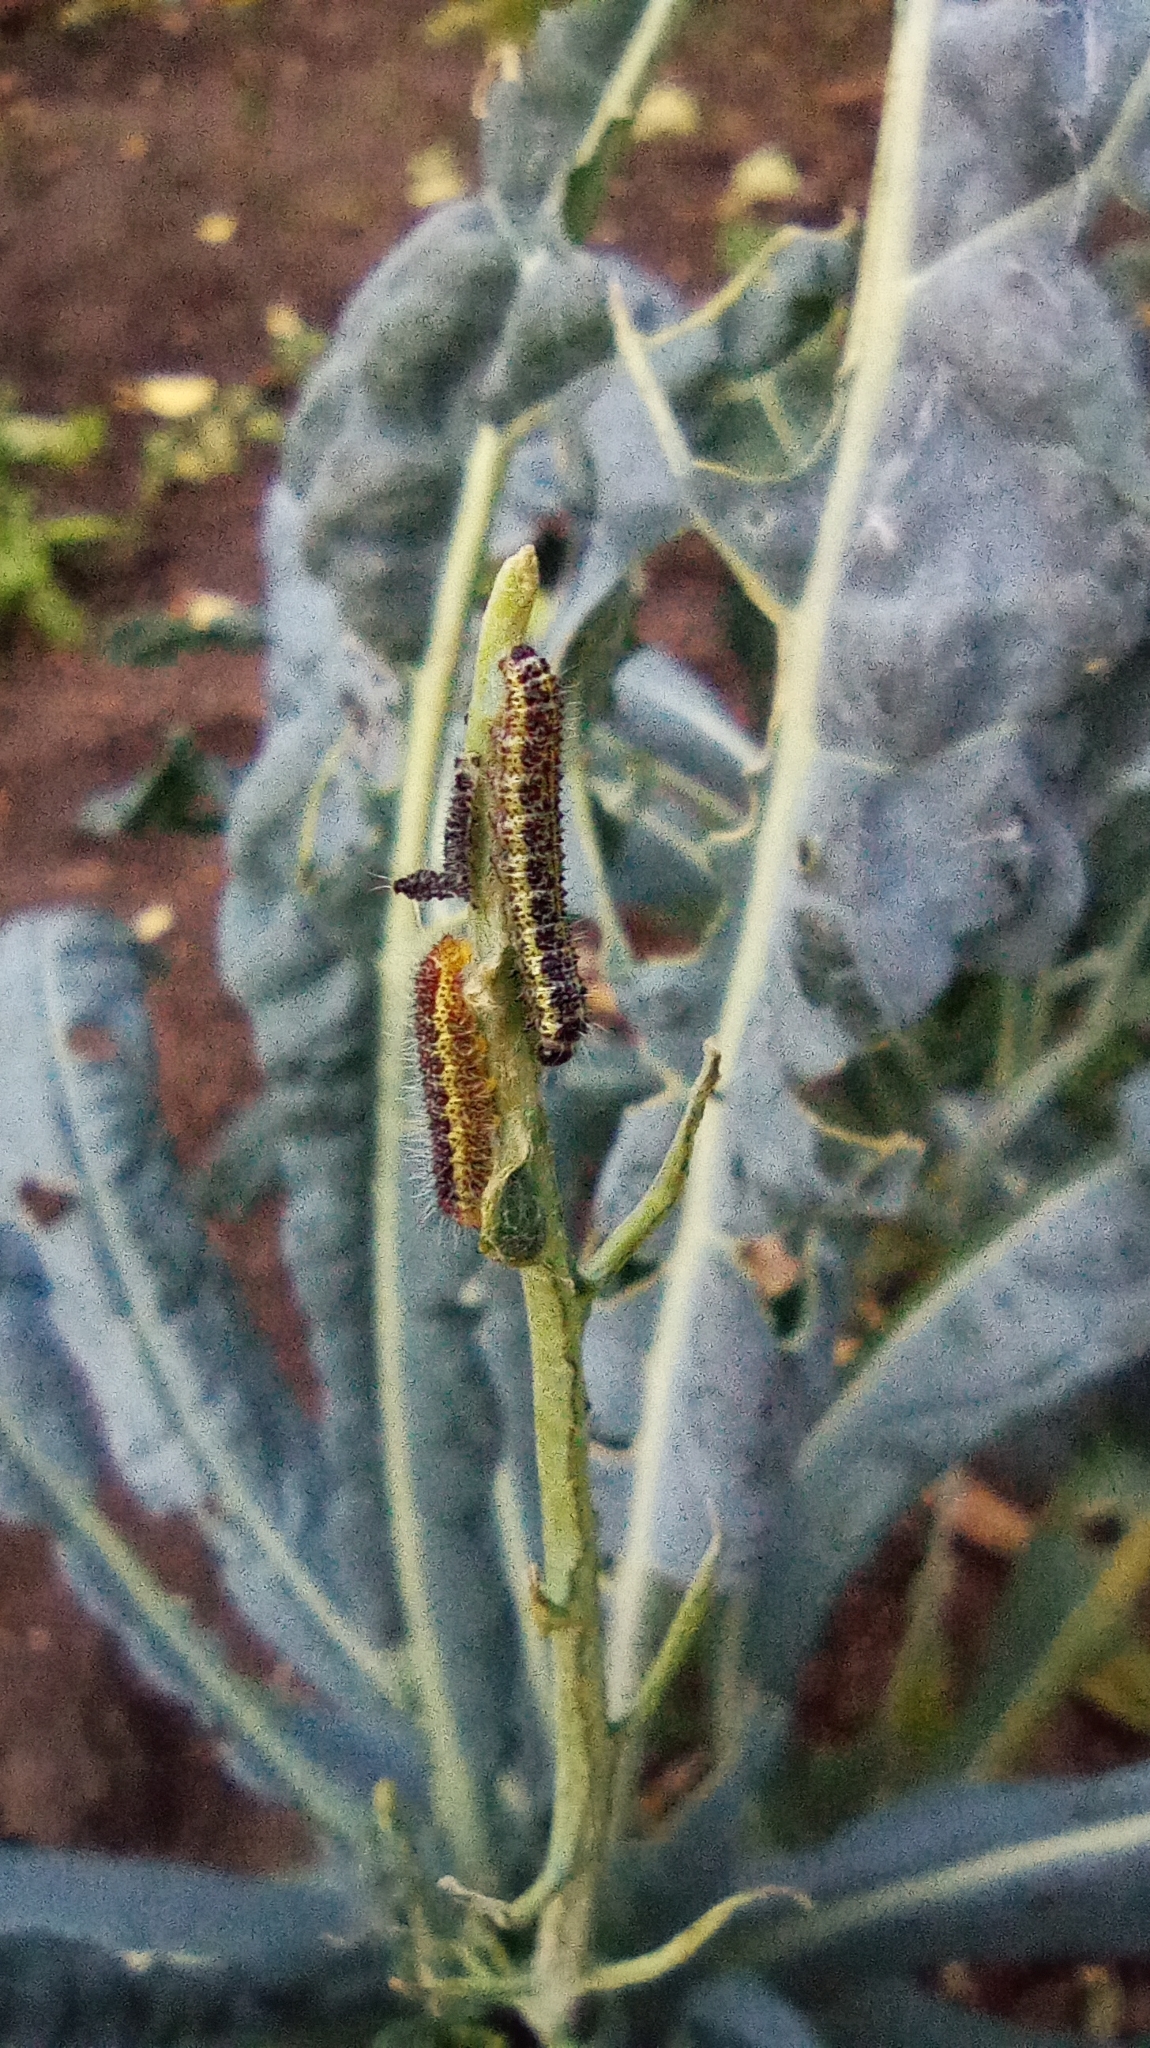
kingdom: Animalia
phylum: Arthropoda
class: Insecta
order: Lepidoptera
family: Pieridae
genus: Pieris
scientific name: Pieris brassicae
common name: Large white
